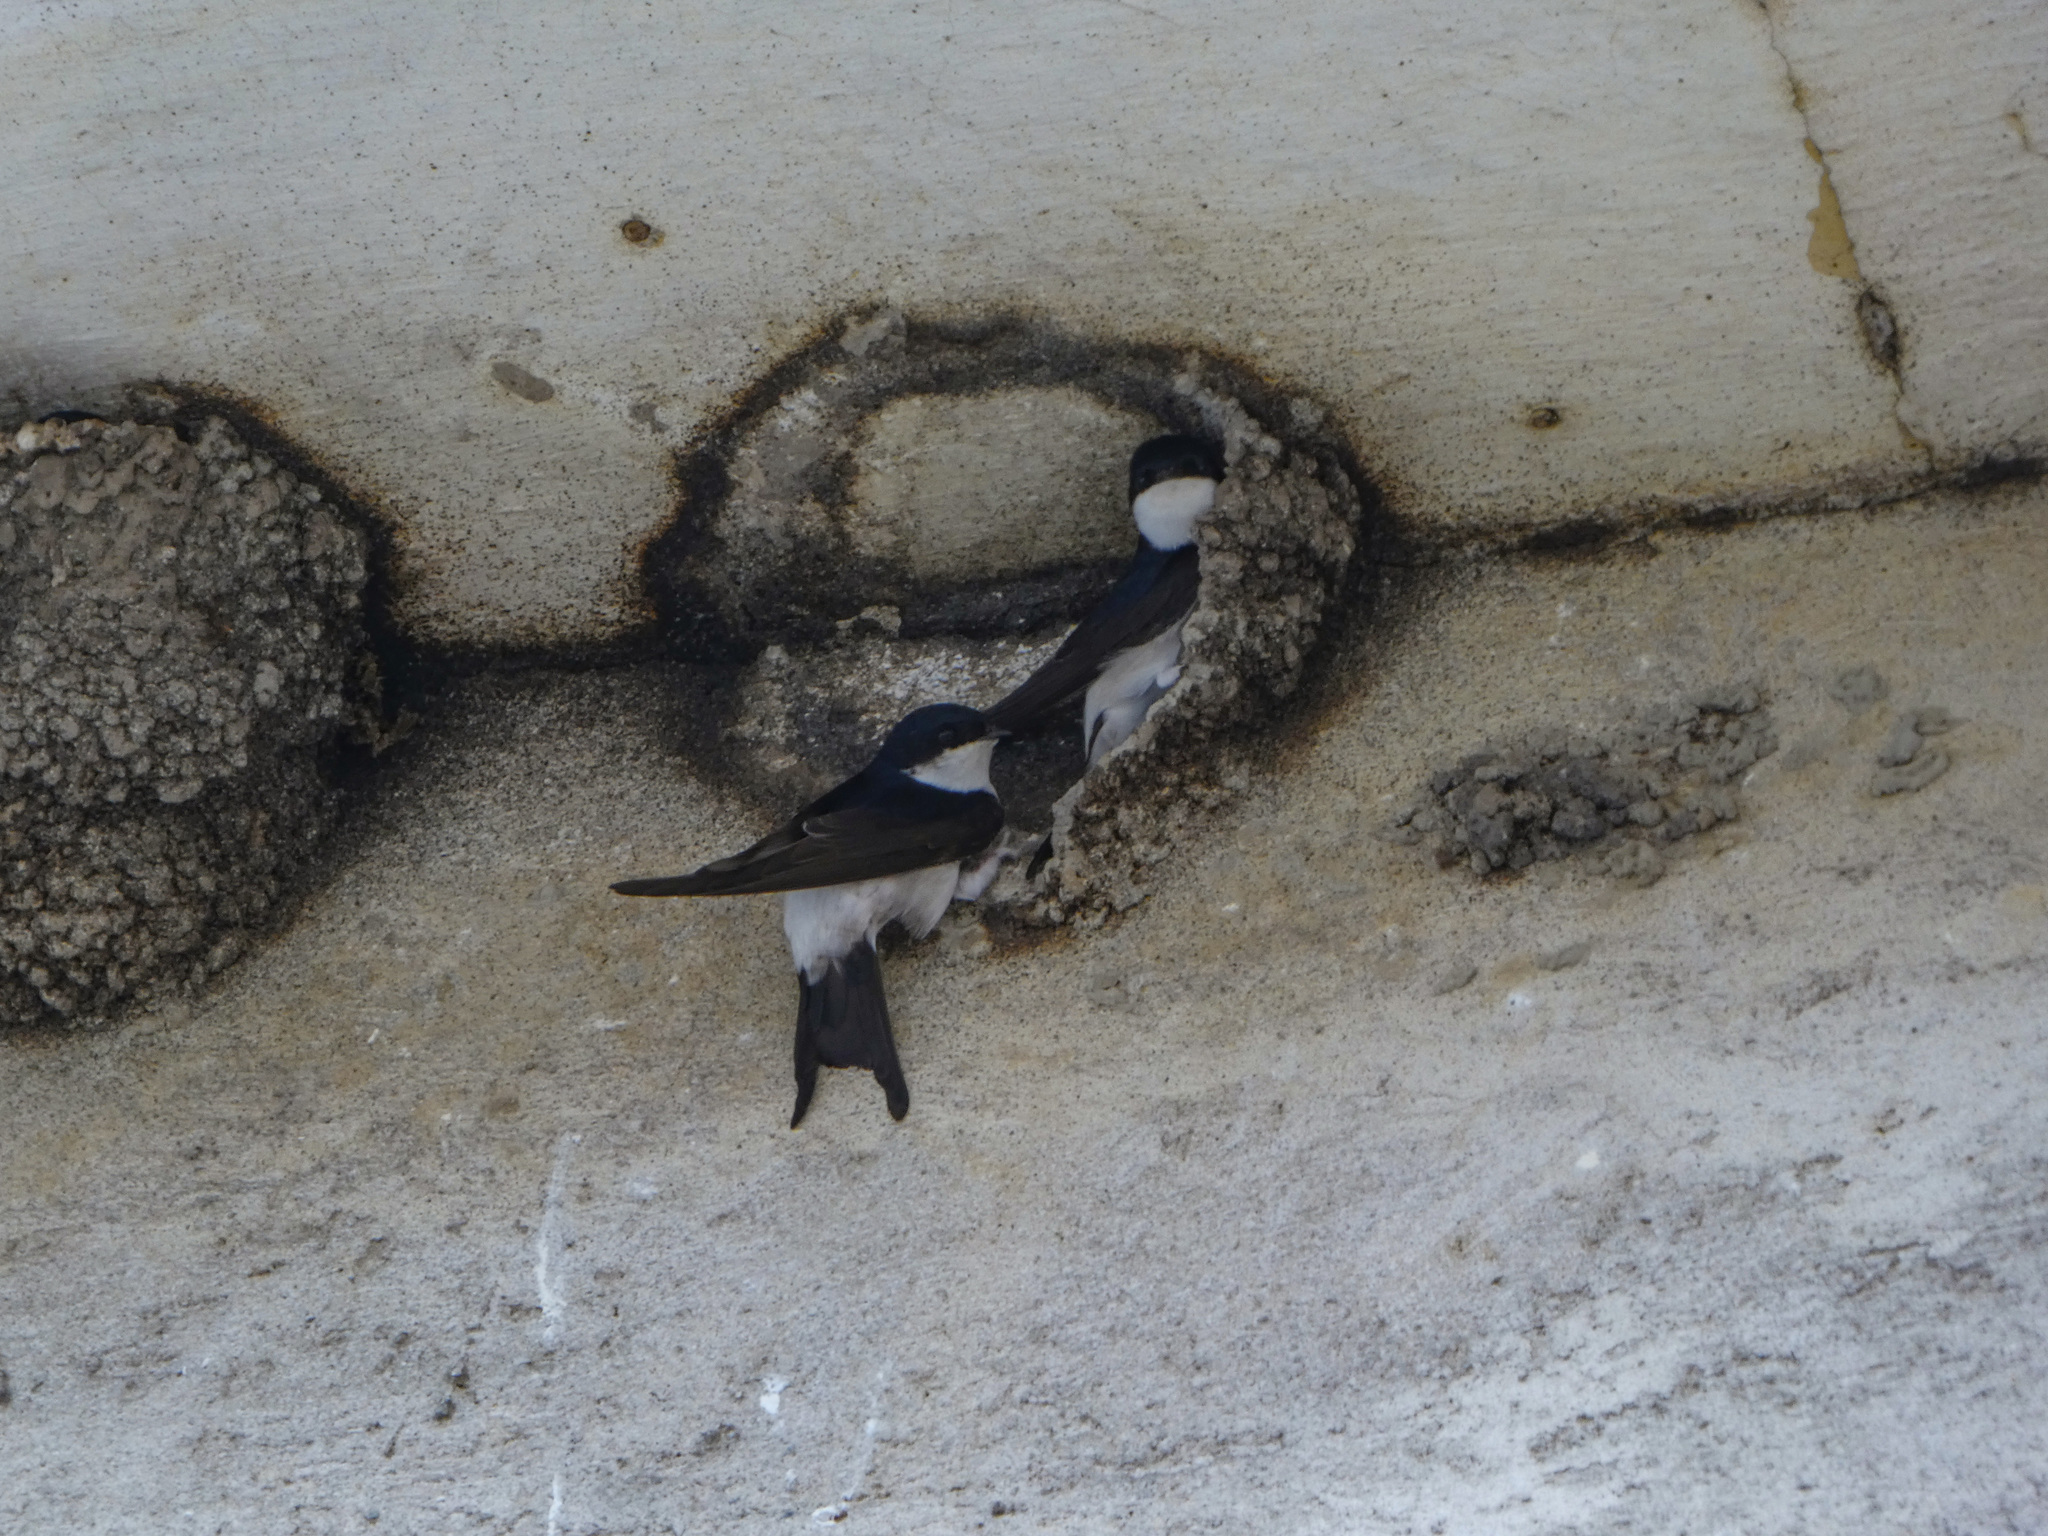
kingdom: Animalia
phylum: Chordata
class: Aves
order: Passeriformes
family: Hirundinidae
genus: Delichon
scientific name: Delichon urbicum
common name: Common house martin
